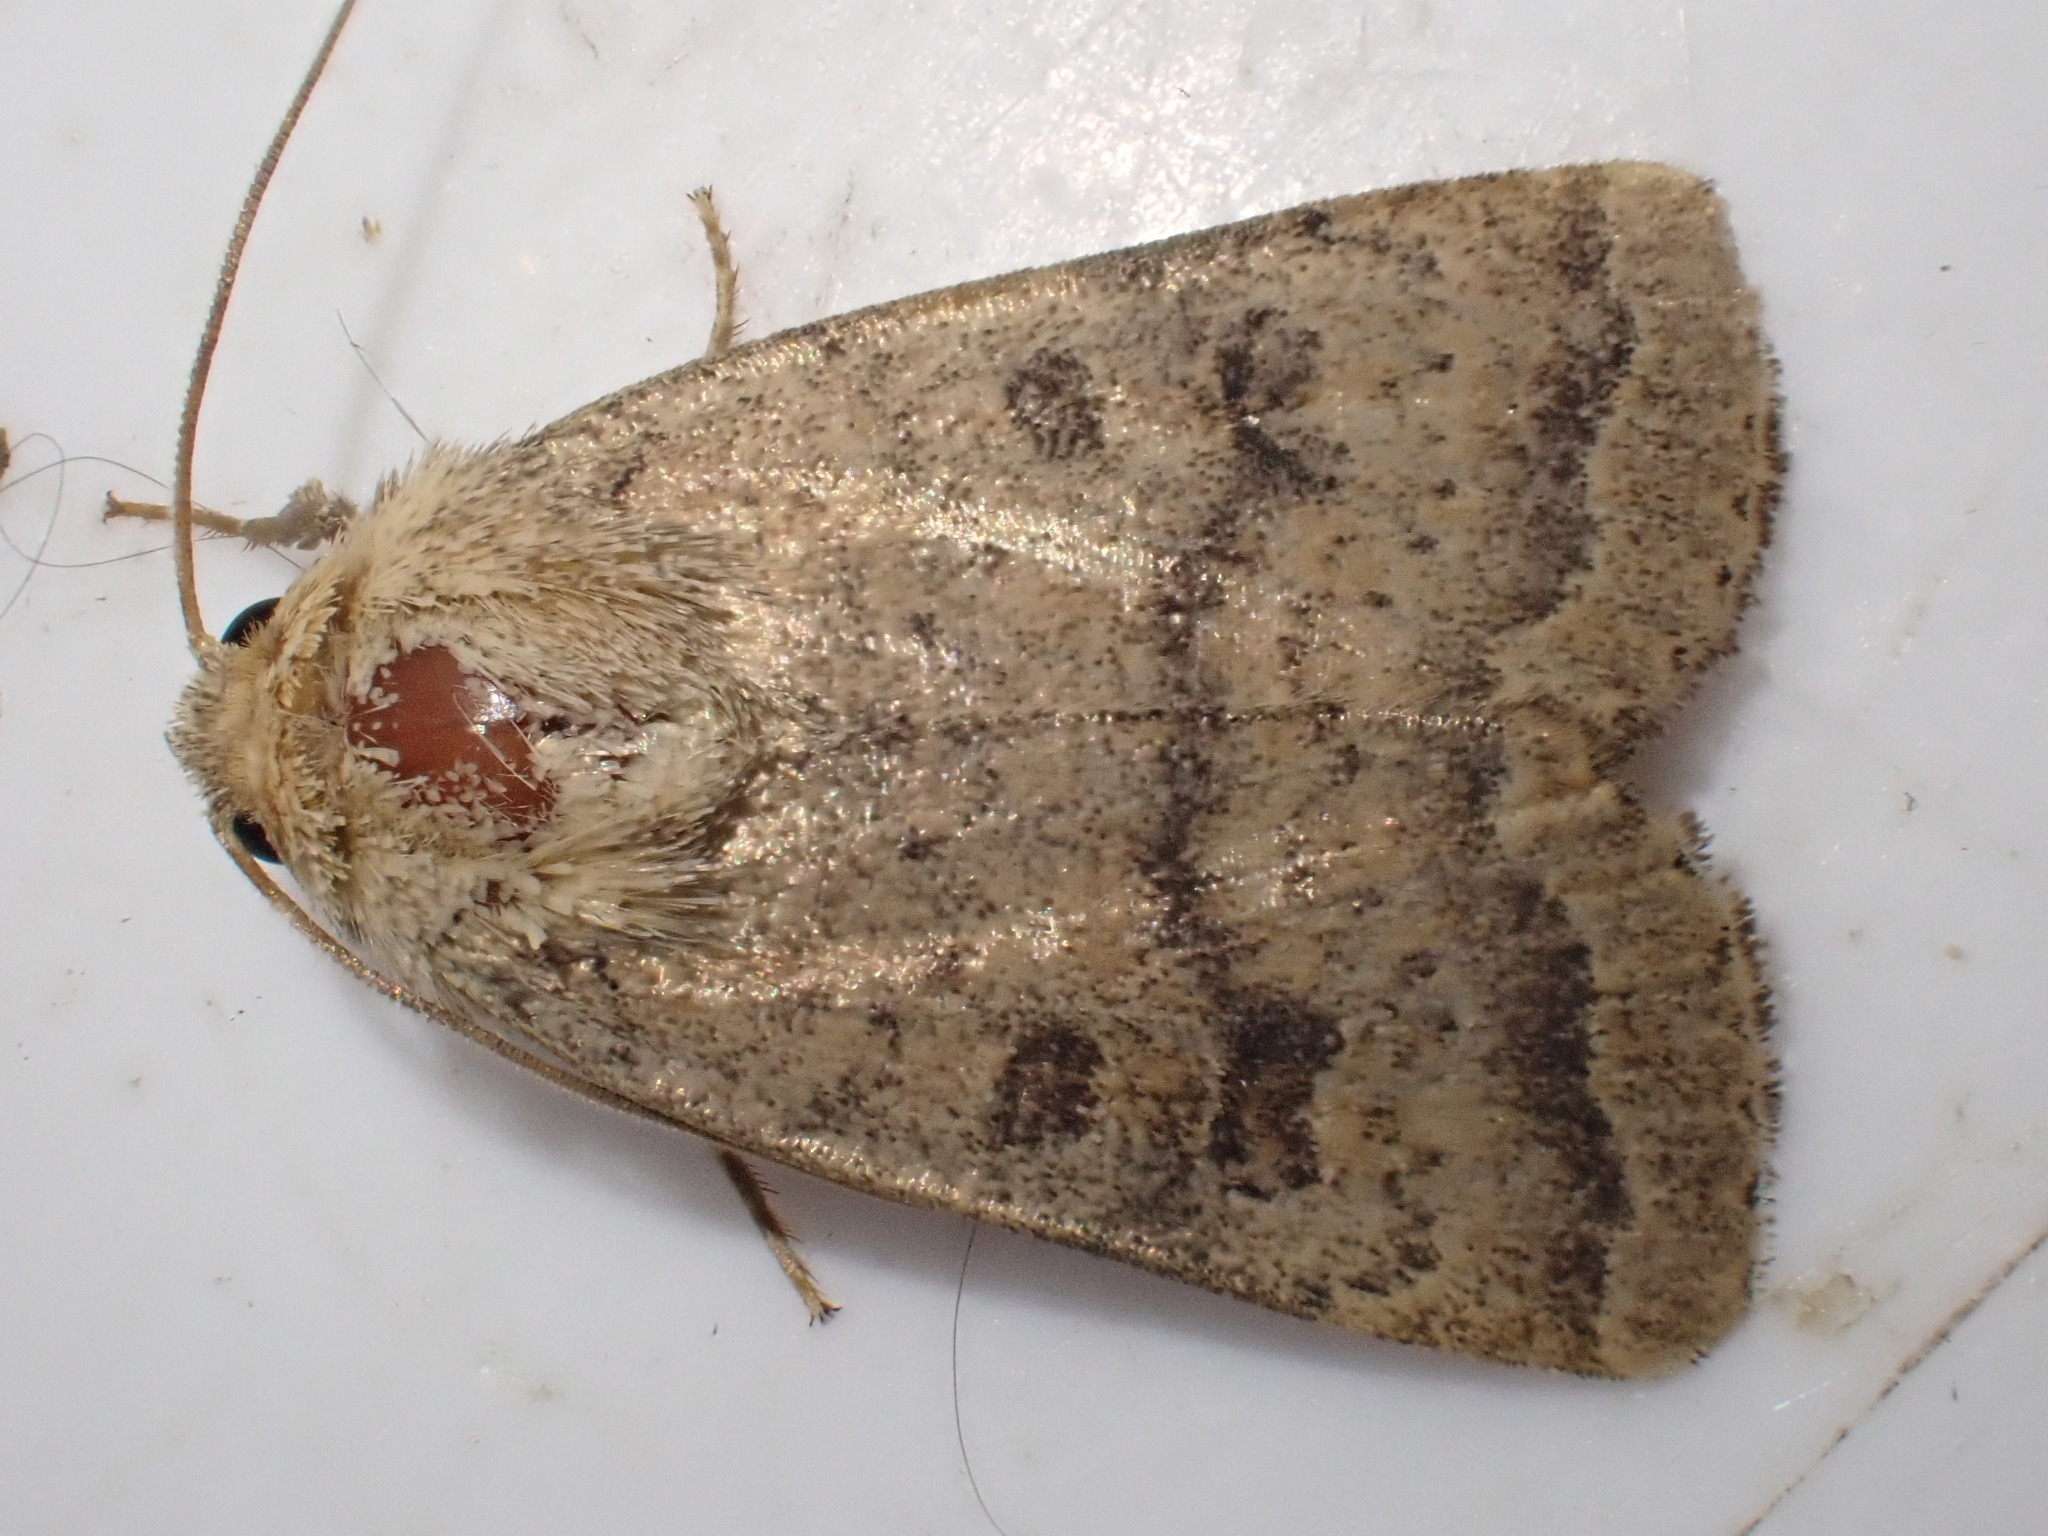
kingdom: Animalia
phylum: Arthropoda
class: Insecta
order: Lepidoptera
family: Noctuidae
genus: Hoplodrina
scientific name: Hoplodrina octogenaria
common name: Uncertain
